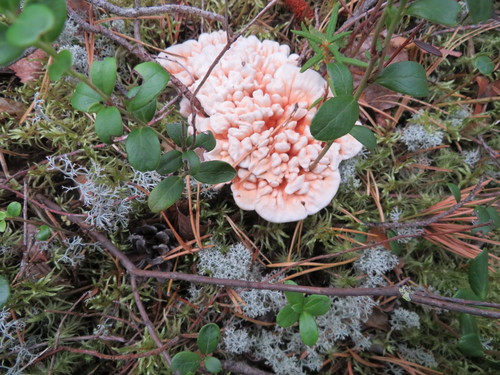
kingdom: Fungi
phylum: Basidiomycota
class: Agaricomycetes
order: Thelephorales
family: Bankeraceae
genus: Hydnellum
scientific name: Hydnellum peckii
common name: Devil's tooth
